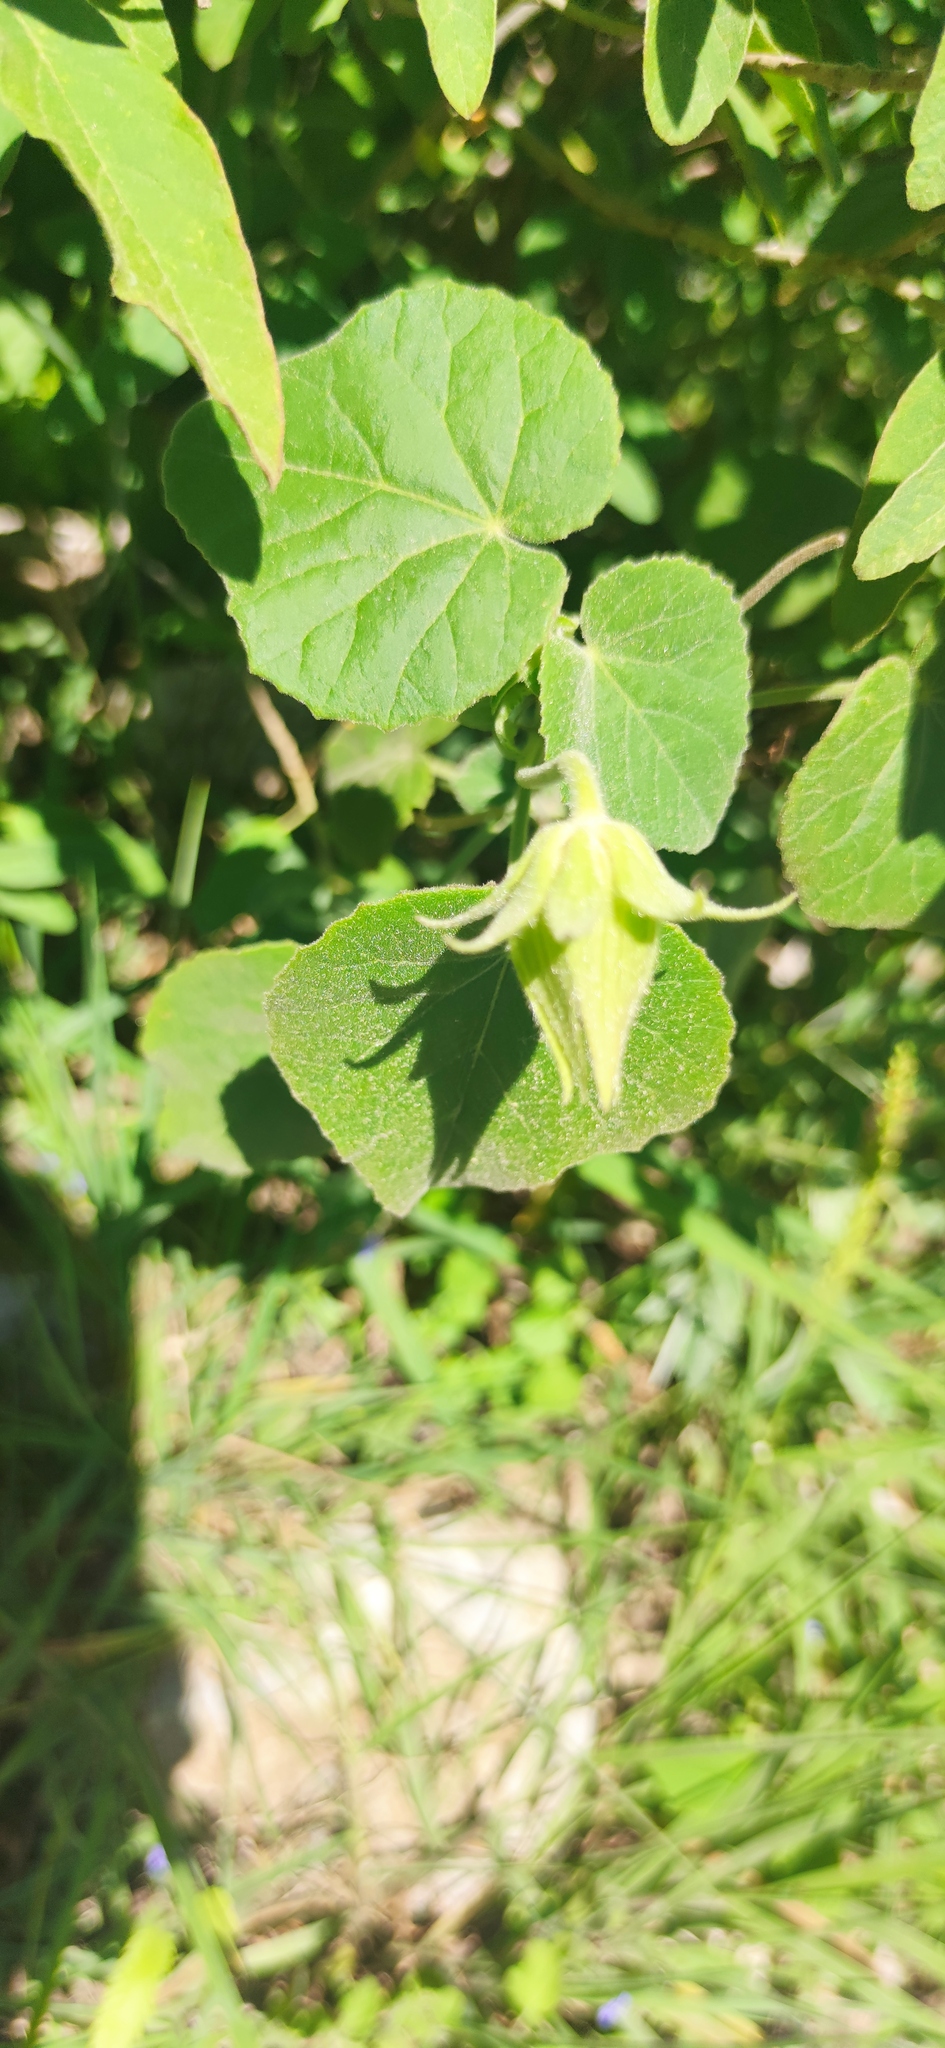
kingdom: Plantae
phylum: Tracheophyta
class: Magnoliopsida
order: Malvales
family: Malvaceae
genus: Hibiscus
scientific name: Hibiscus martianus
